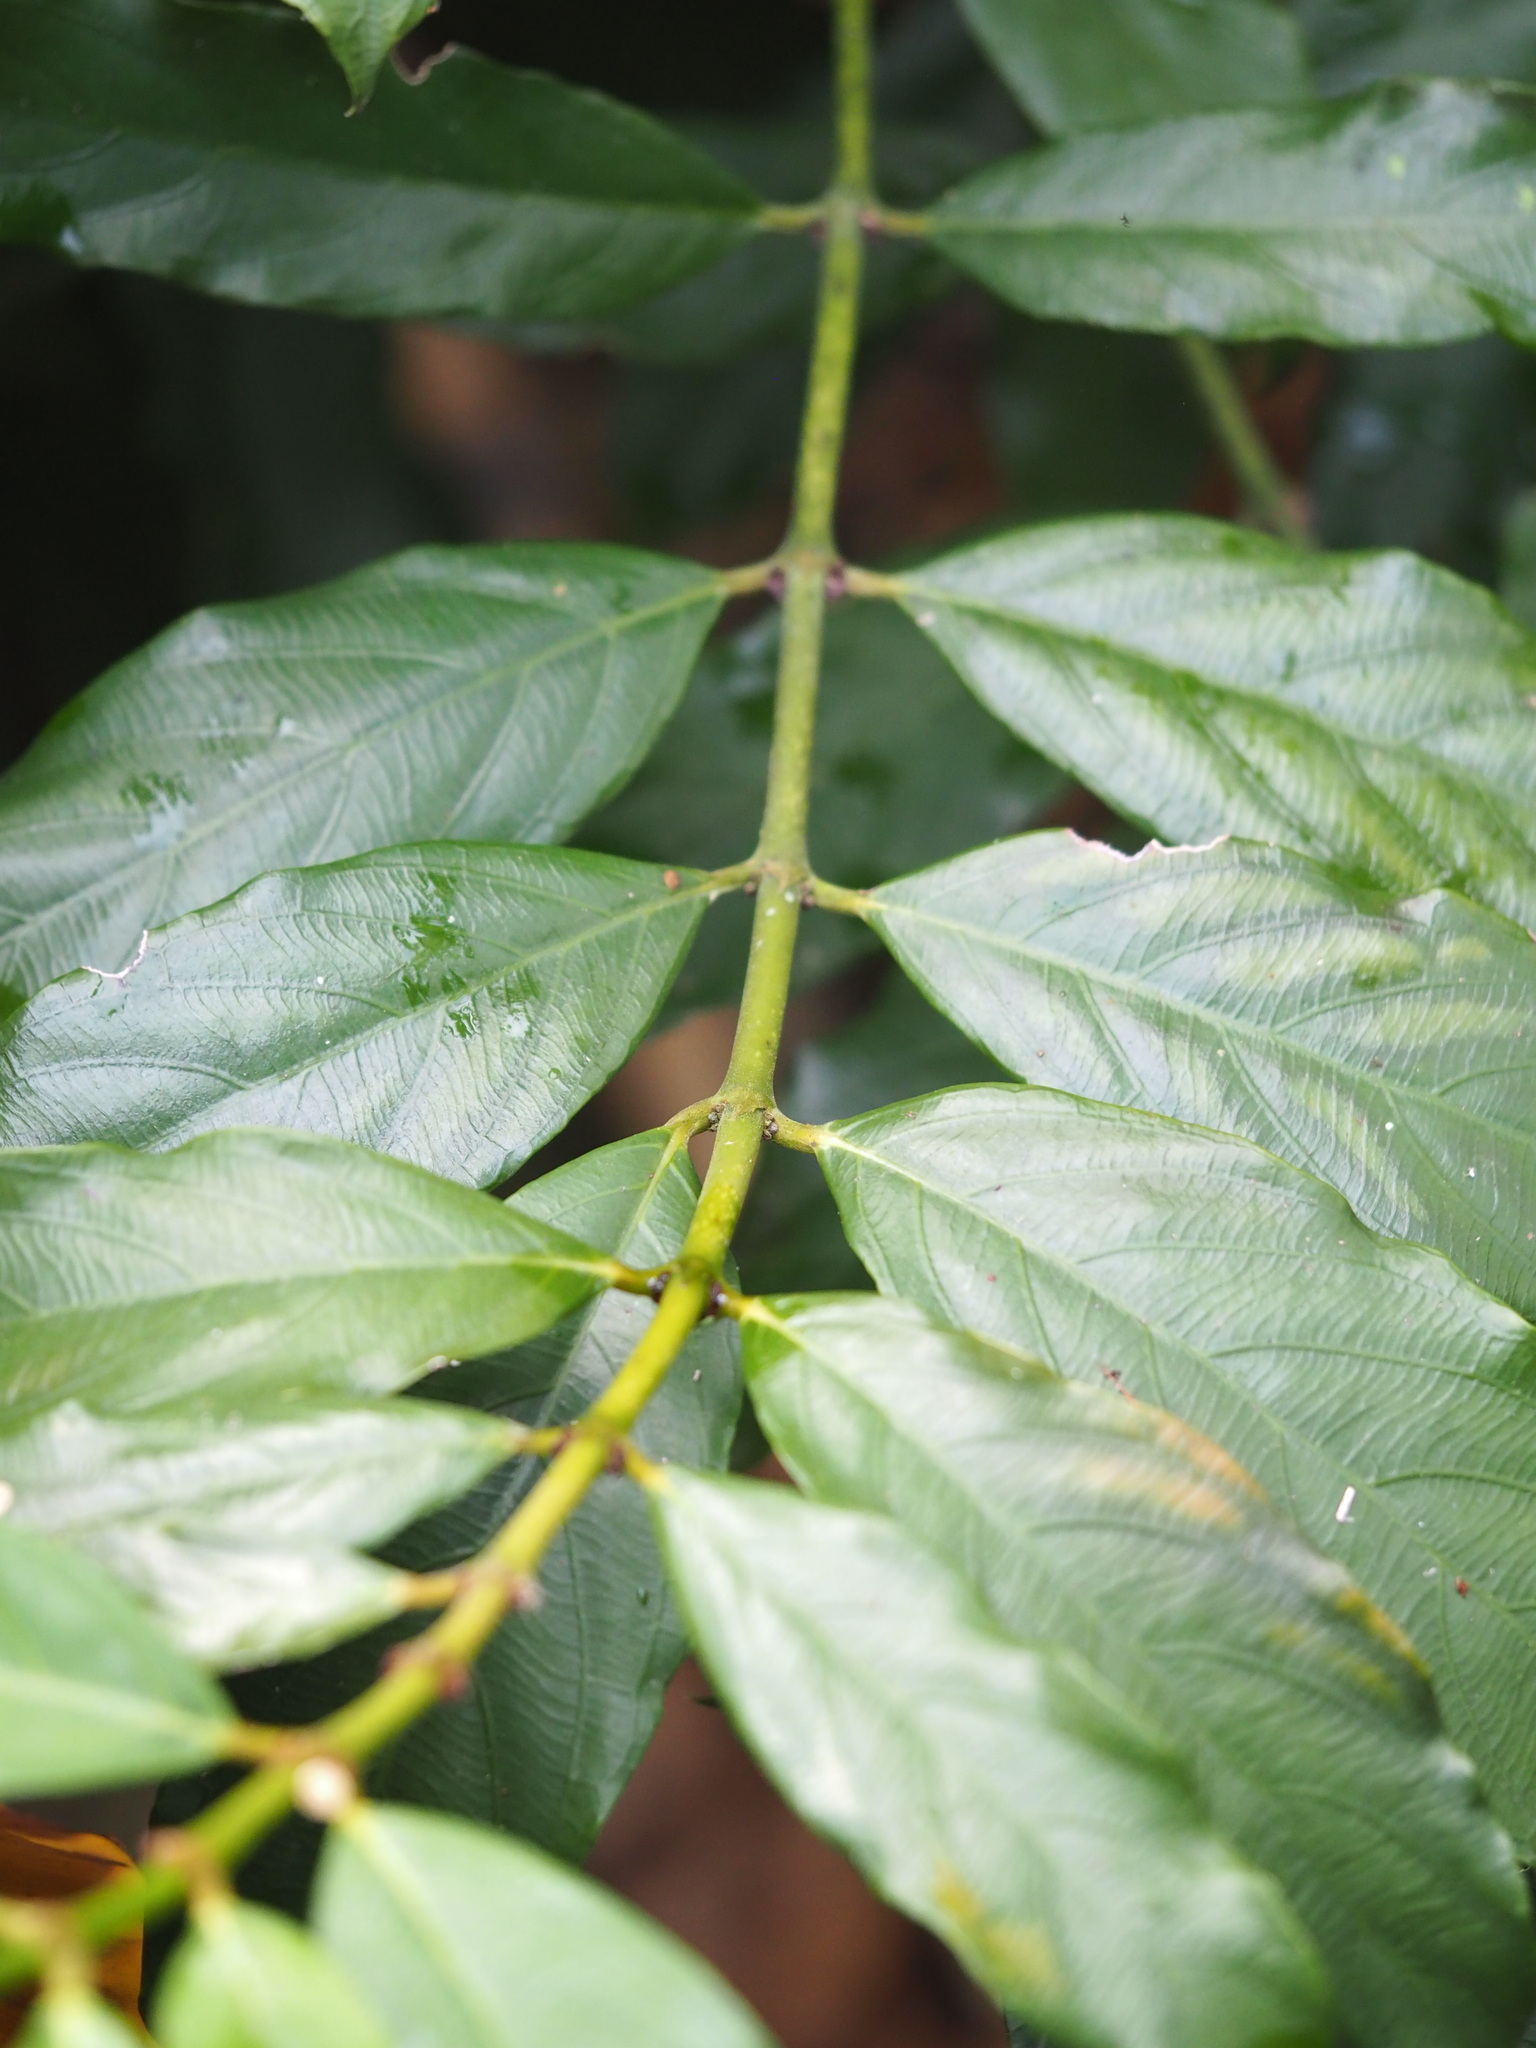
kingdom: Plantae
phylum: Tracheophyta
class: Magnoliopsida
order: Gentianales
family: Rubiaceae
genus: Lasianthus
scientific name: Lasianthus verticillatus
